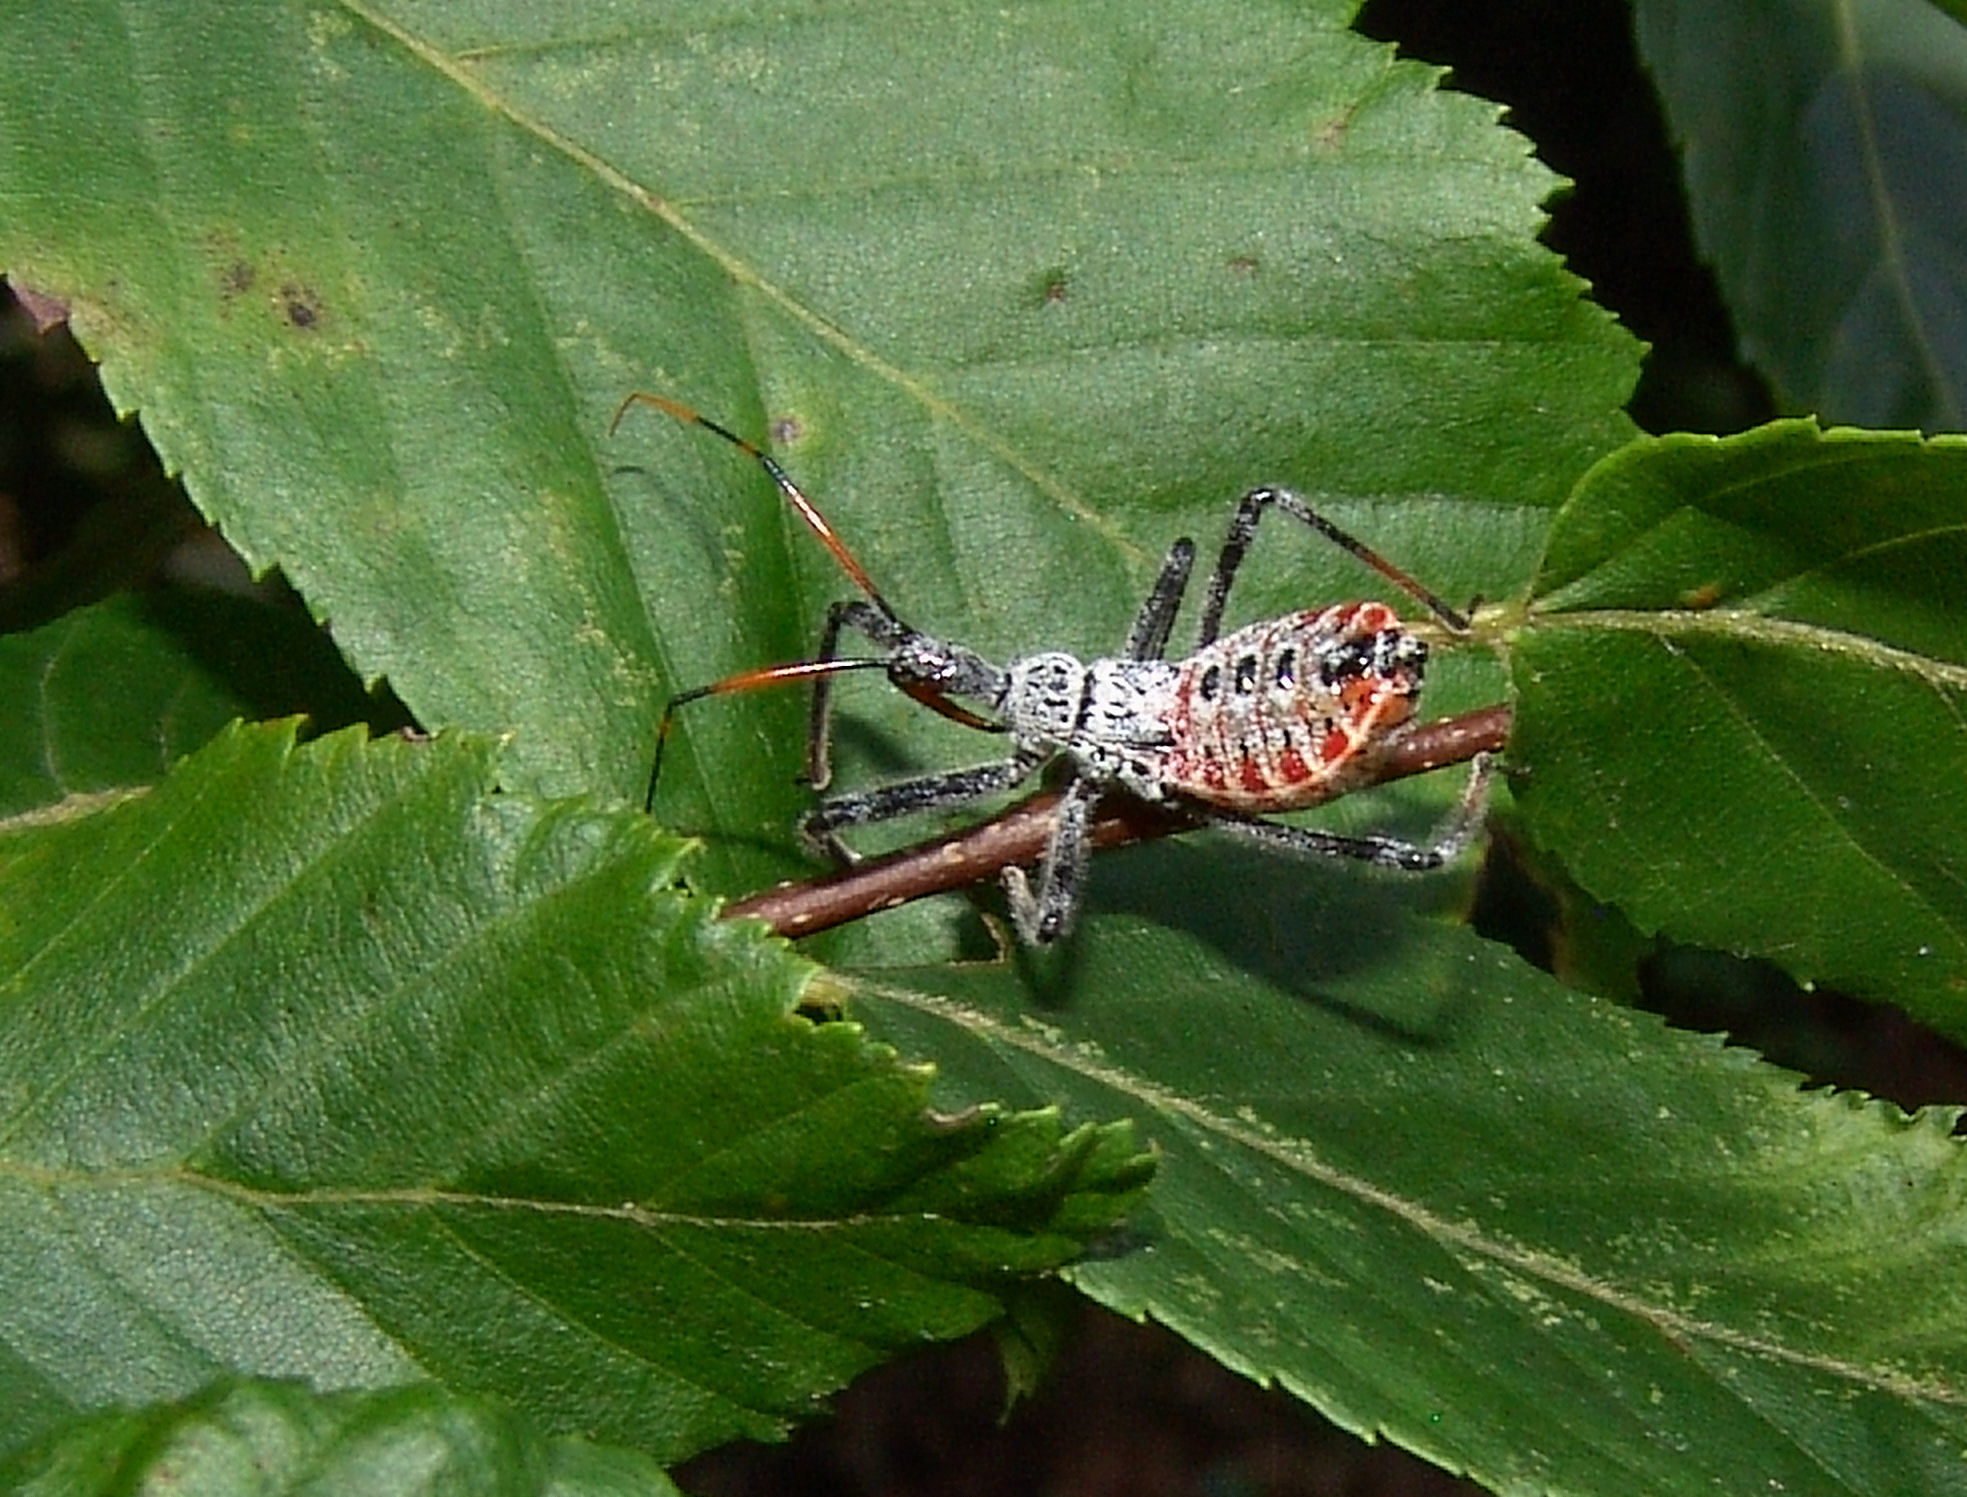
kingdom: Animalia
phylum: Arthropoda
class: Insecta
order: Hemiptera
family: Reduviidae
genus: Arilus
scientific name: Arilus cristatus
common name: North american wheel bug
